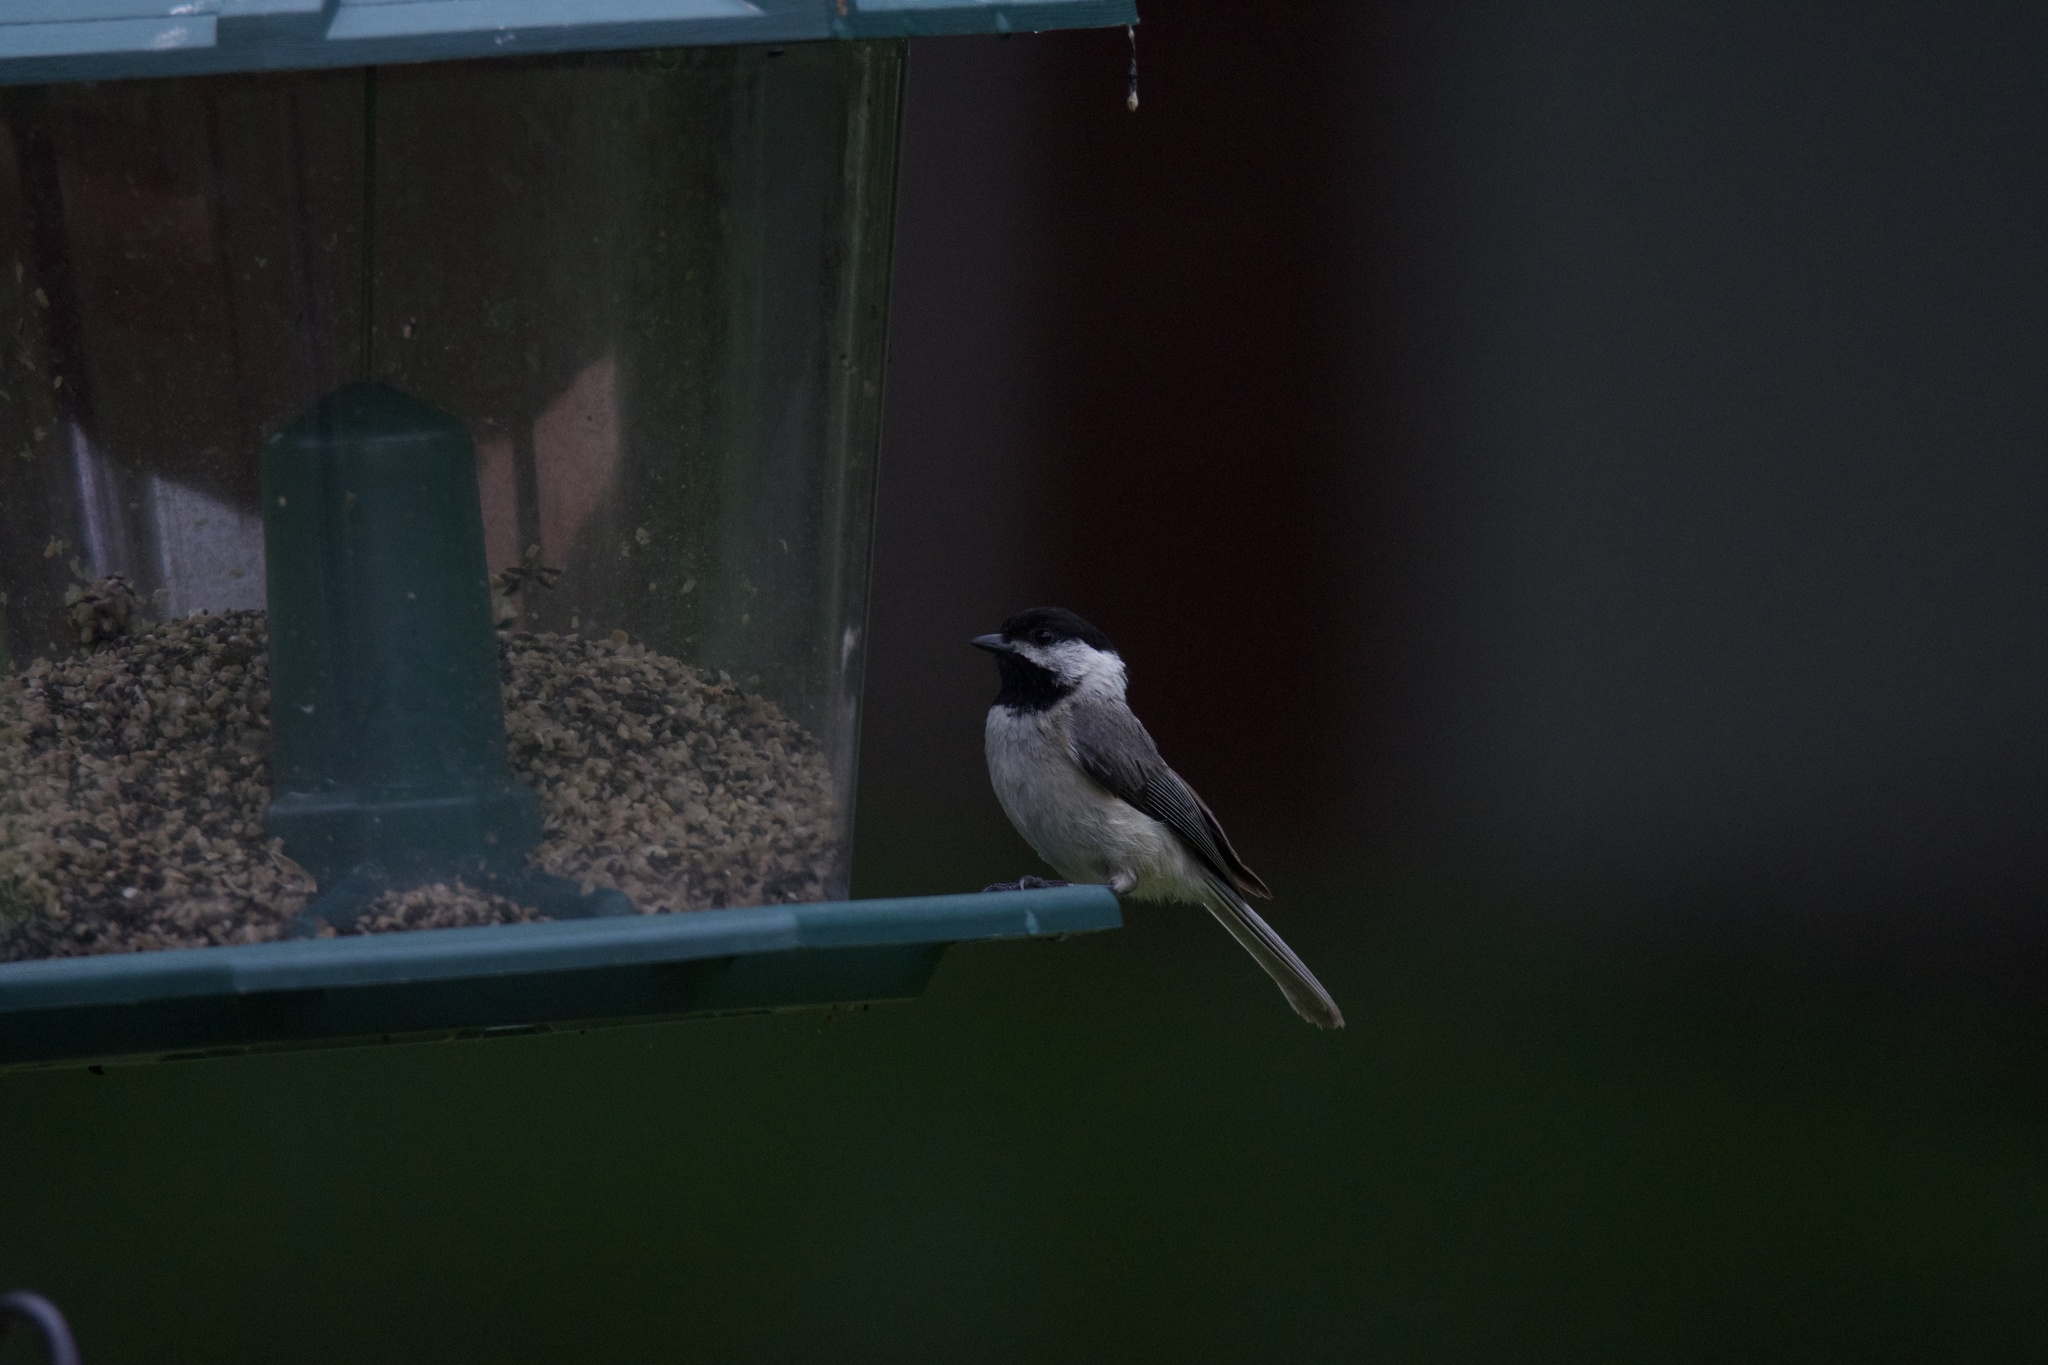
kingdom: Animalia
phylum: Chordata
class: Aves
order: Passeriformes
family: Paridae
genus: Poecile
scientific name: Poecile carolinensis
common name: Carolina chickadee
